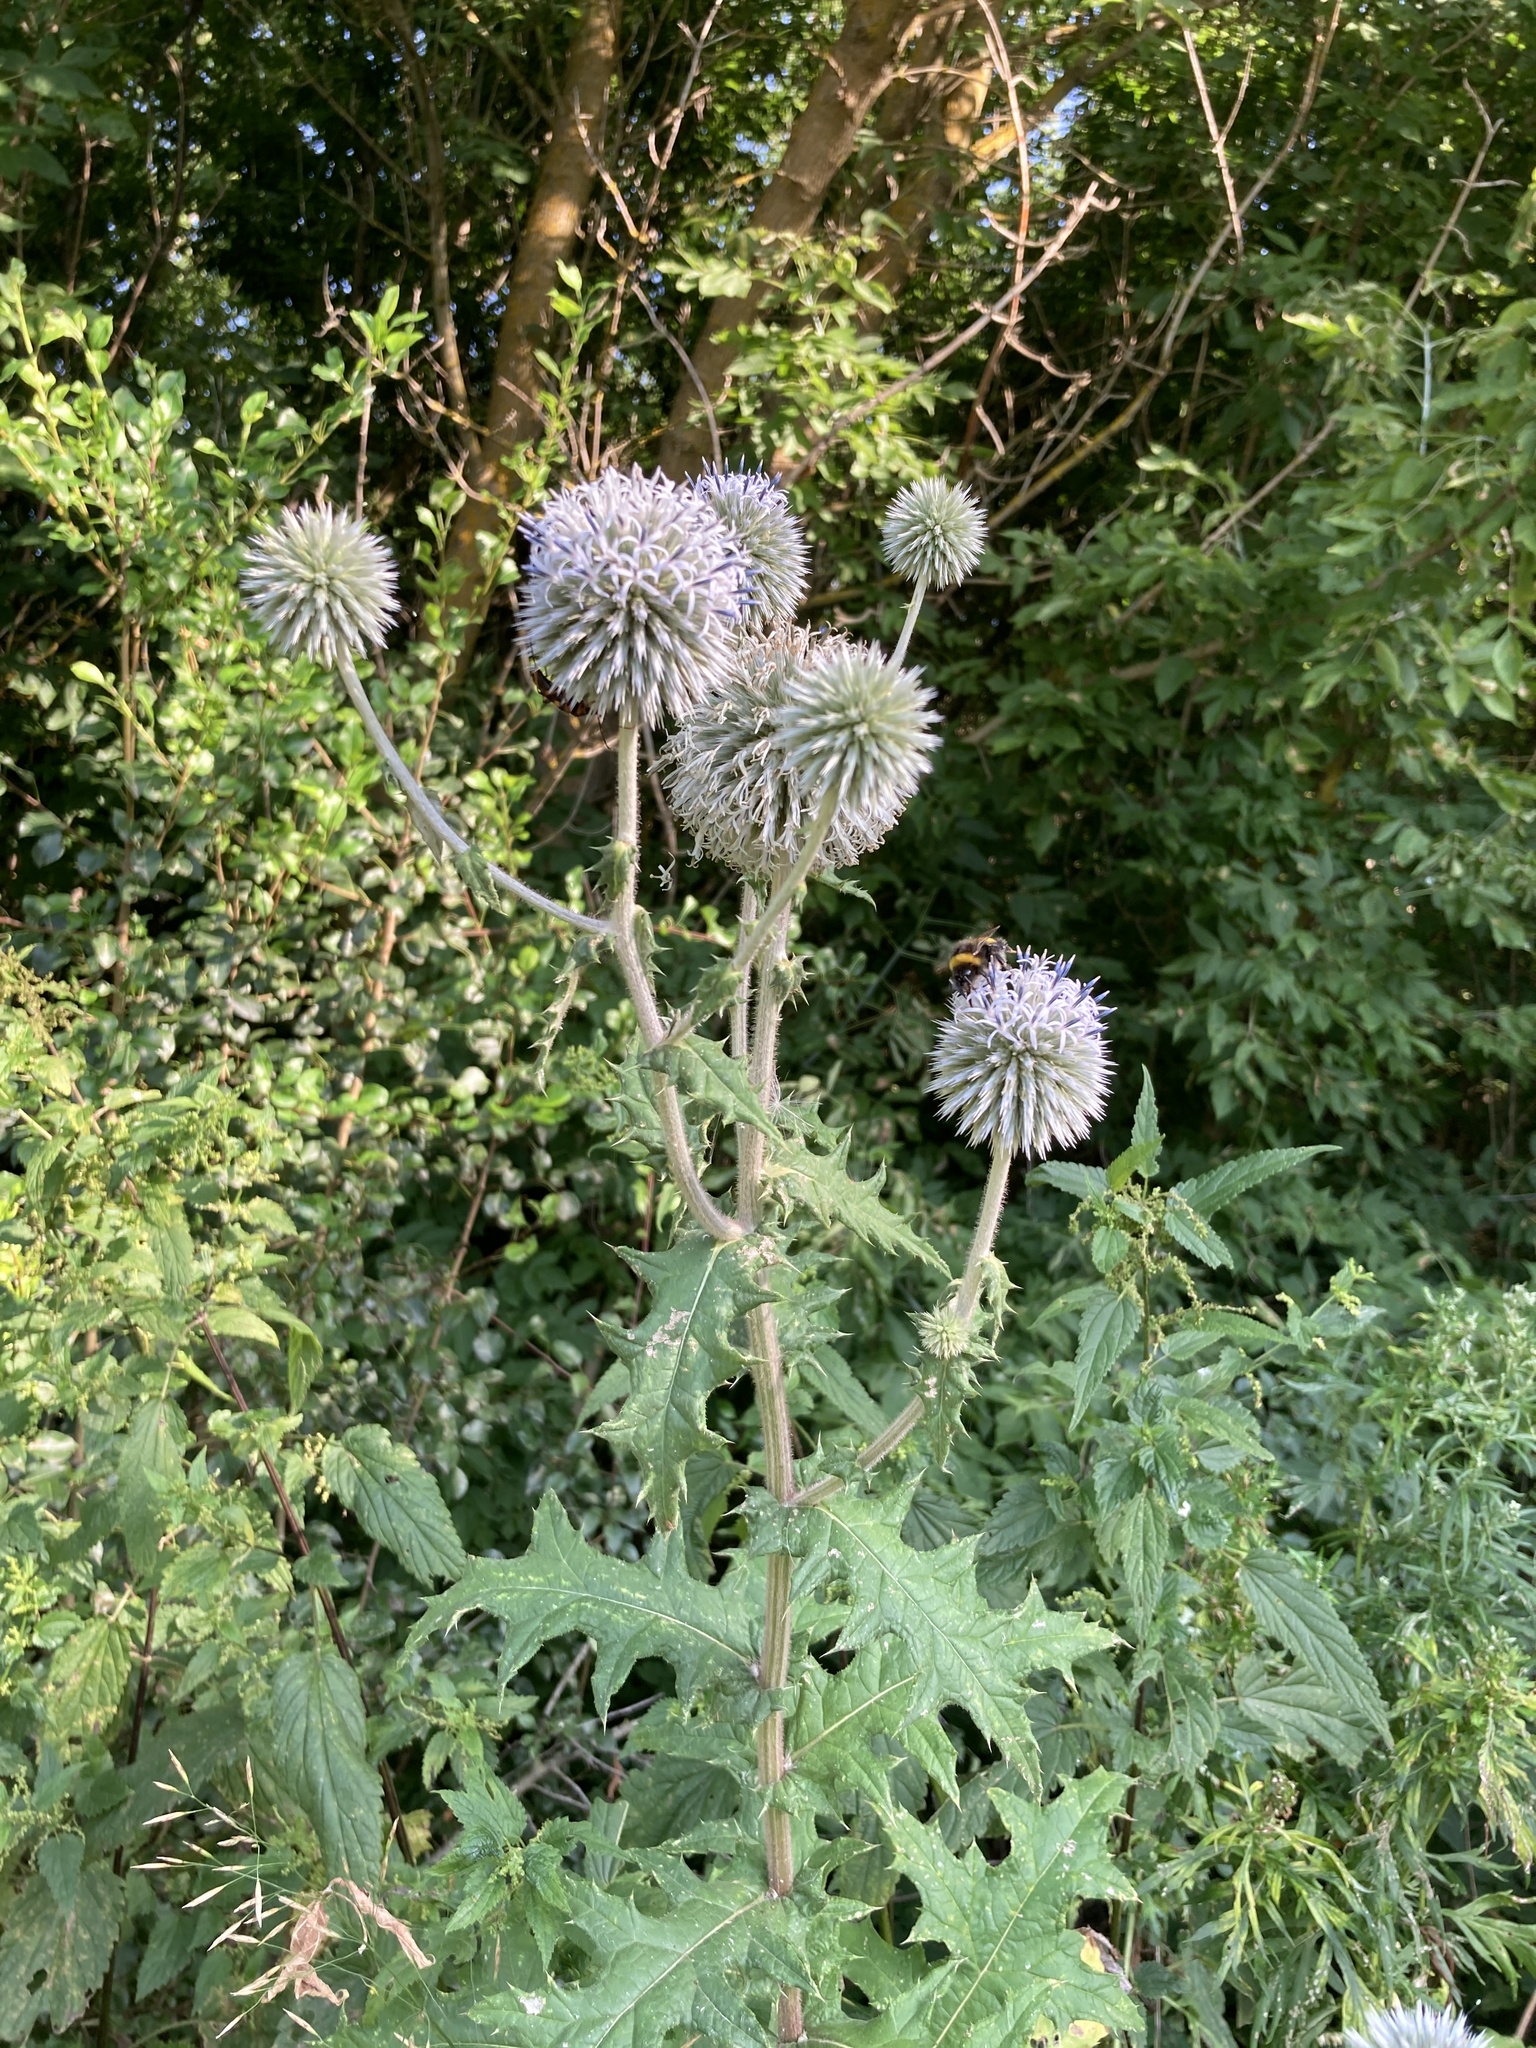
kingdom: Plantae
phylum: Tracheophyta
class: Magnoliopsida
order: Asterales
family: Asteraceae
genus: Echinops
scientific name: Echinops sphaerocephalus
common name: Glandular globe-thistle
